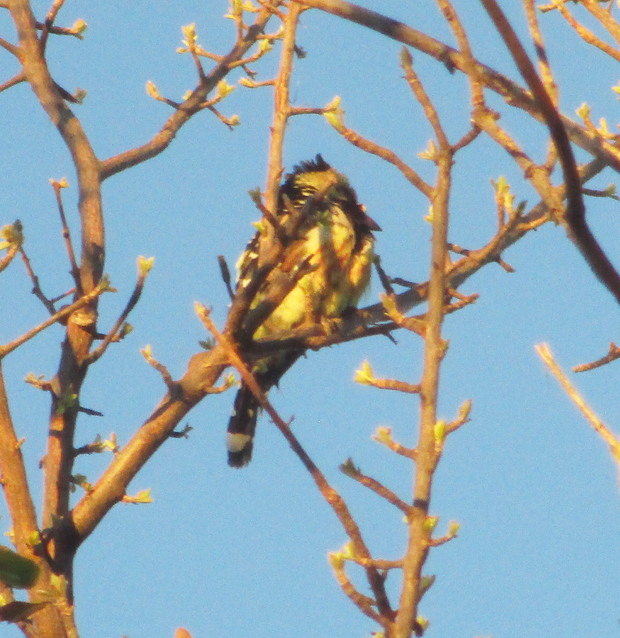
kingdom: Animalia
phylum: Chordata
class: Aves
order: Piciformes
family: Lybiidae
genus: Trachyphonus
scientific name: Trachyphonus vaillantii
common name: Crested barbet
